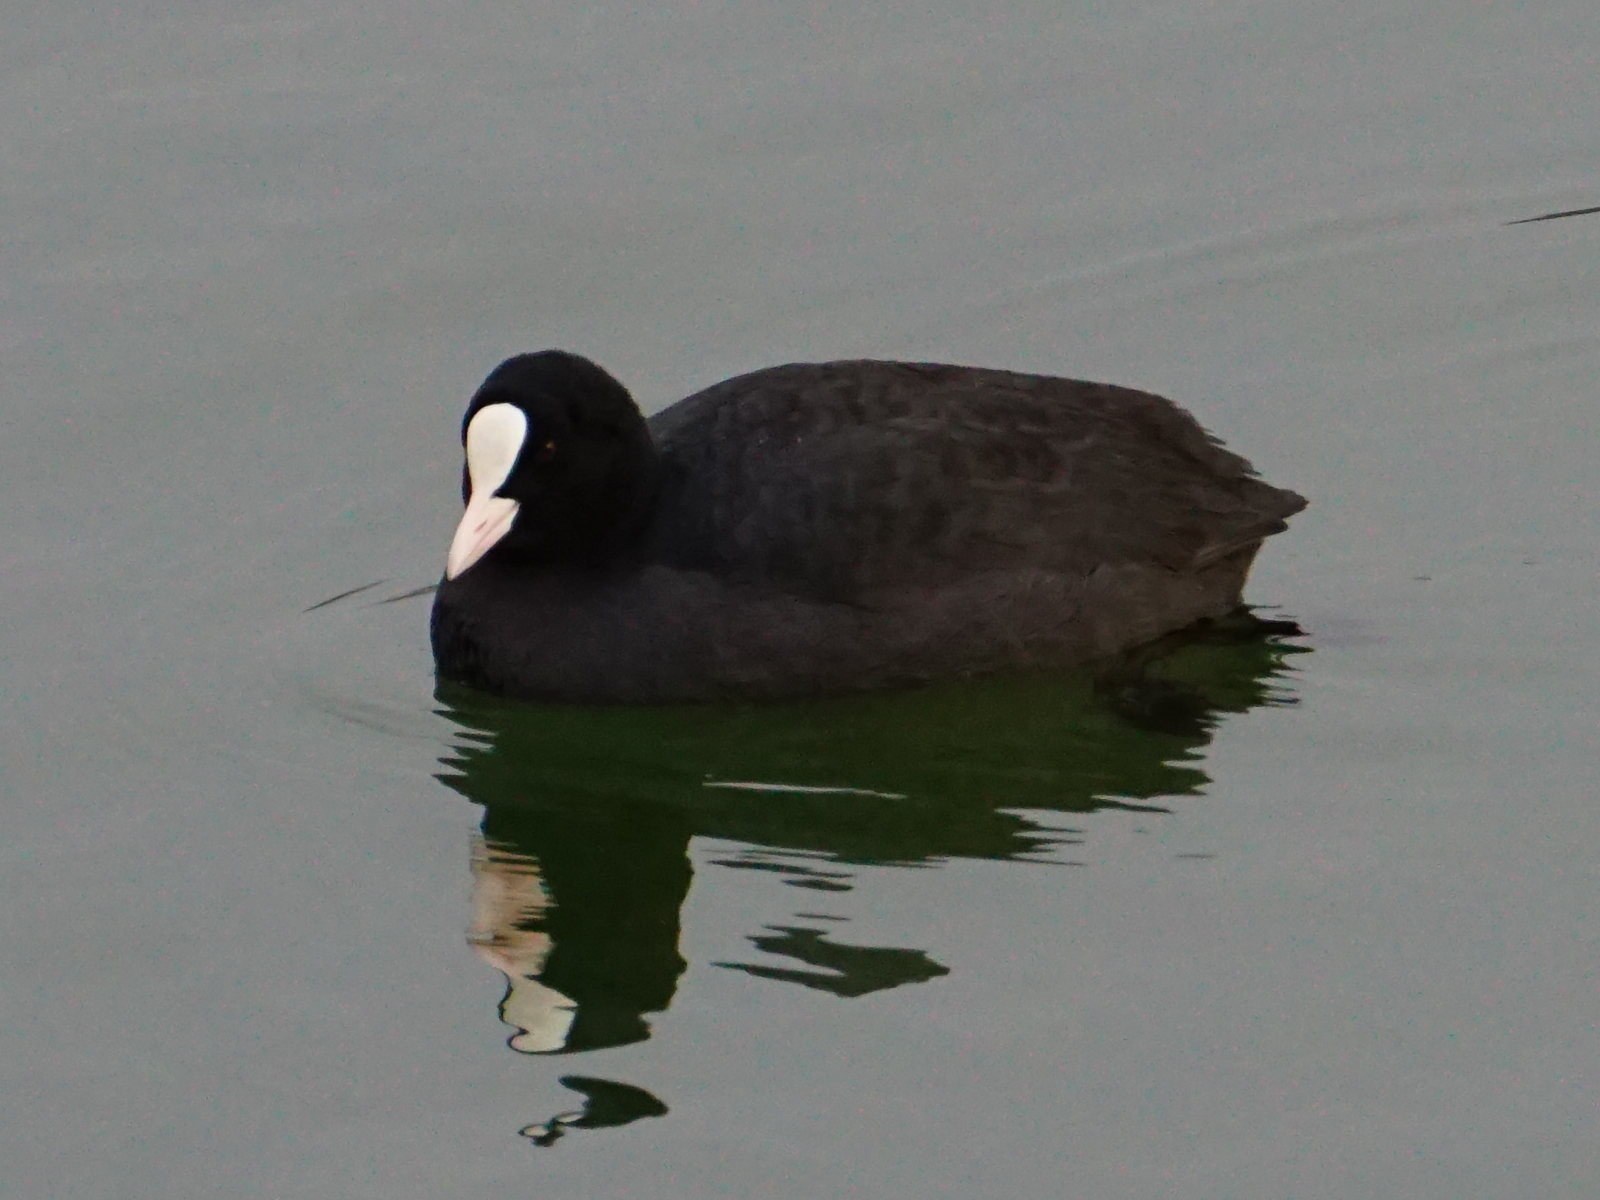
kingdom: Animalia
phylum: Chordata
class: Aves
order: Gruiformes
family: Rallidae
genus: Fulica
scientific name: Fulica atra
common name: Eurasian coot
